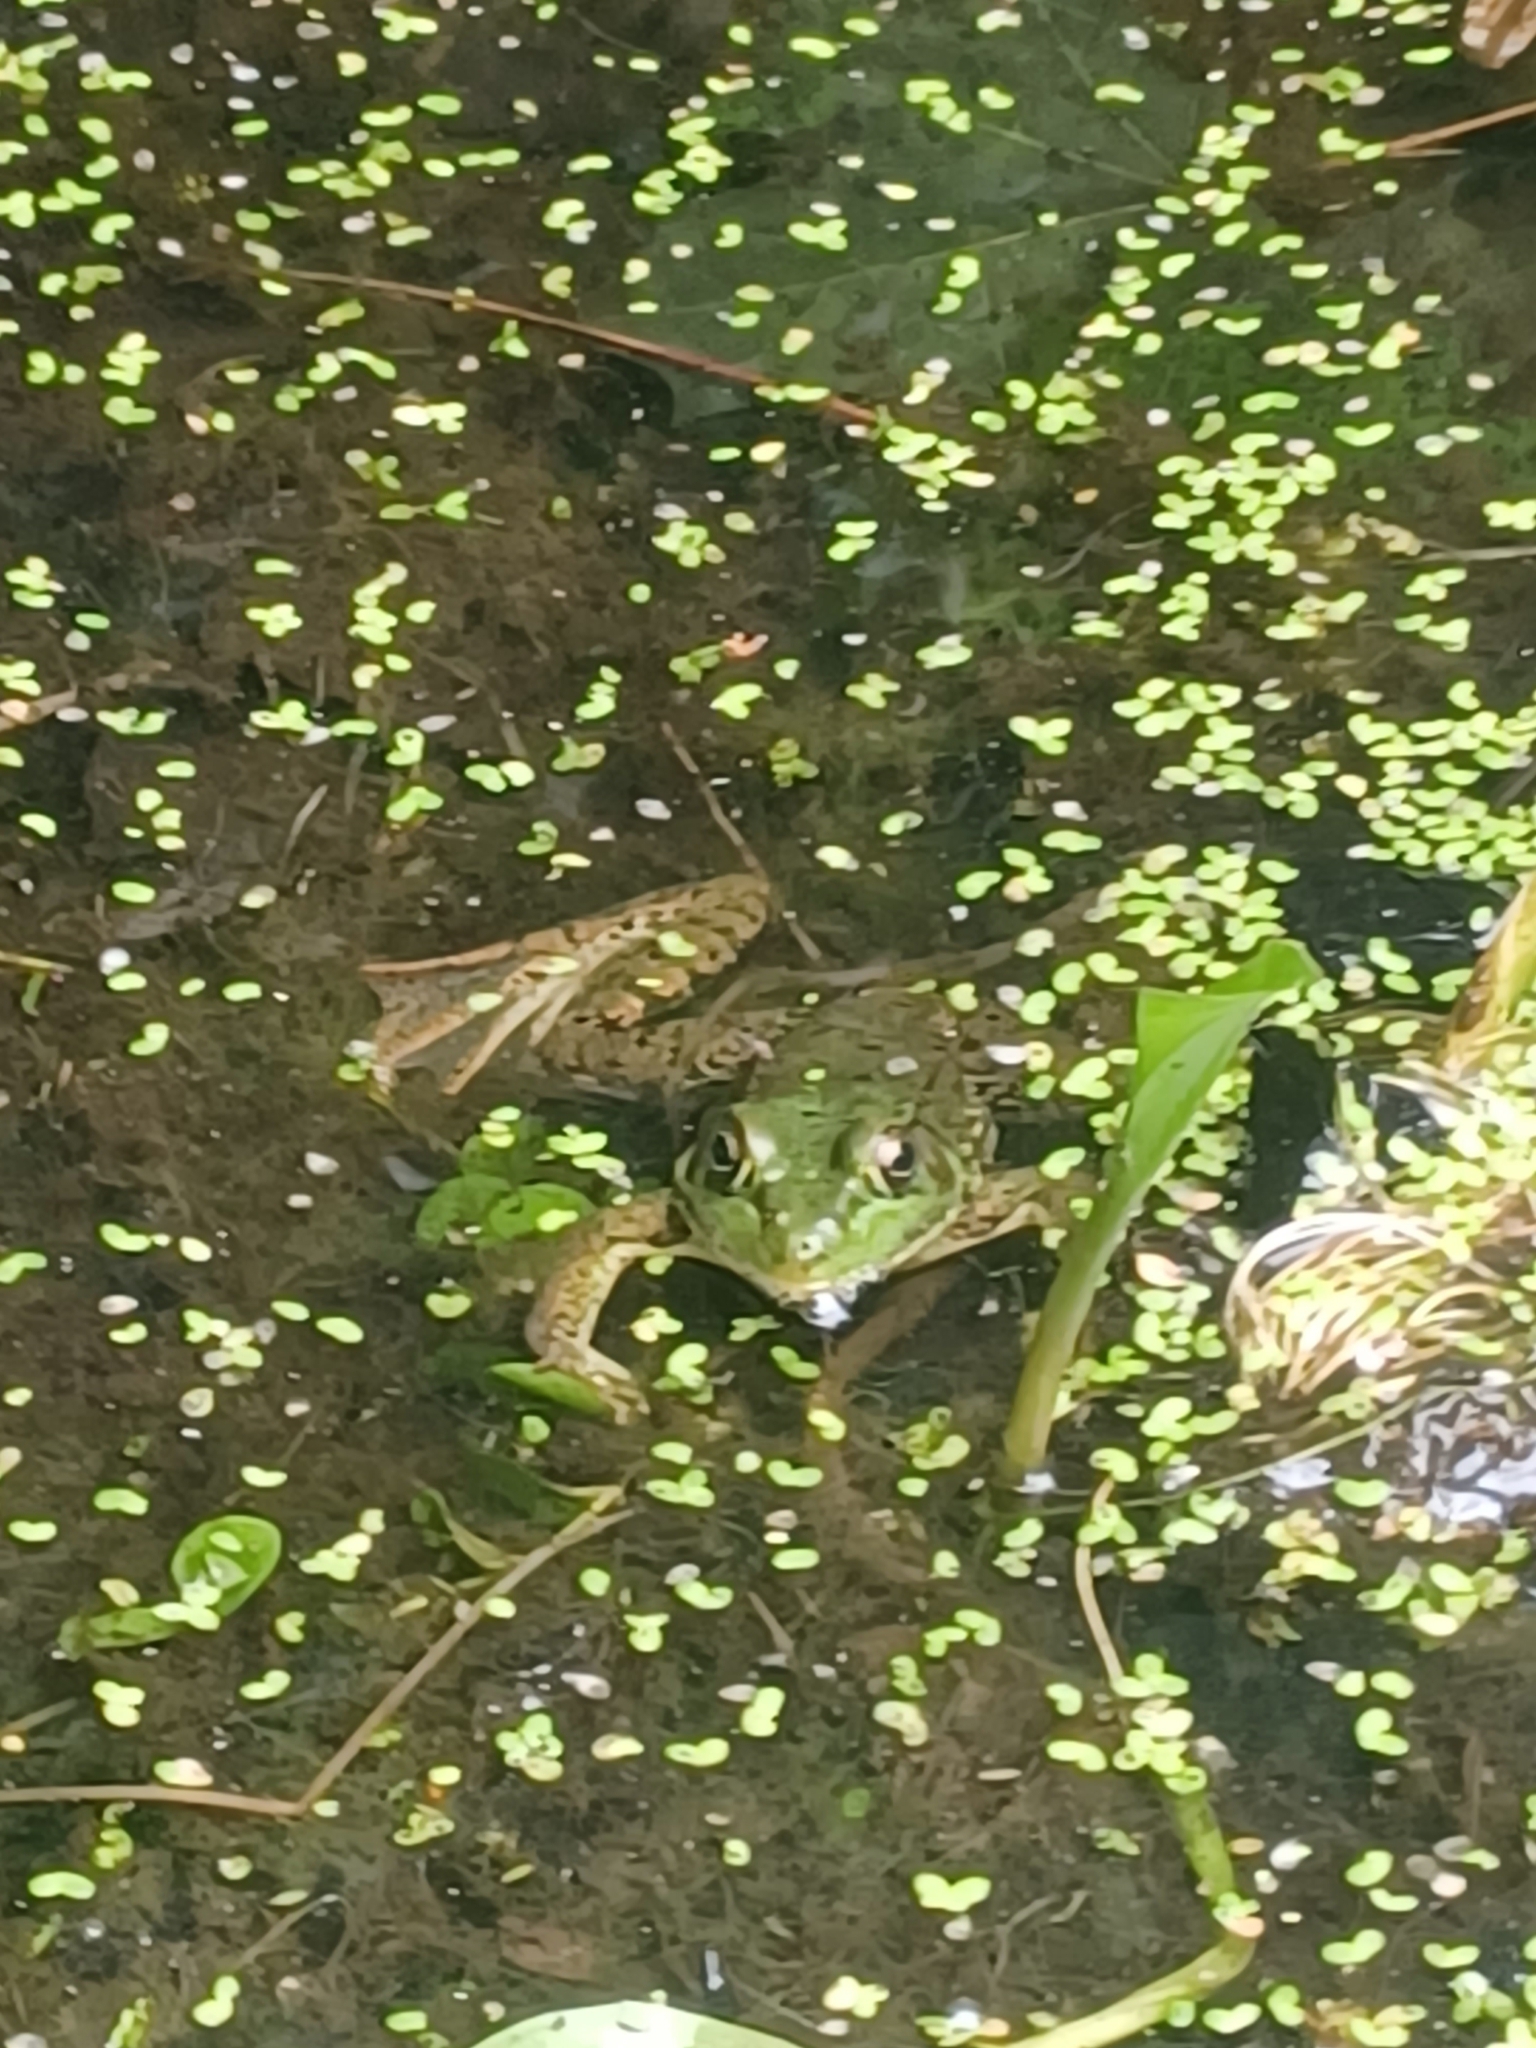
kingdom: Animalia
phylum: Chordata
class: Amphibia
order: Anura
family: Ranidae
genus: Lithobates
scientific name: Lithobates clamitans
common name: Green frog
